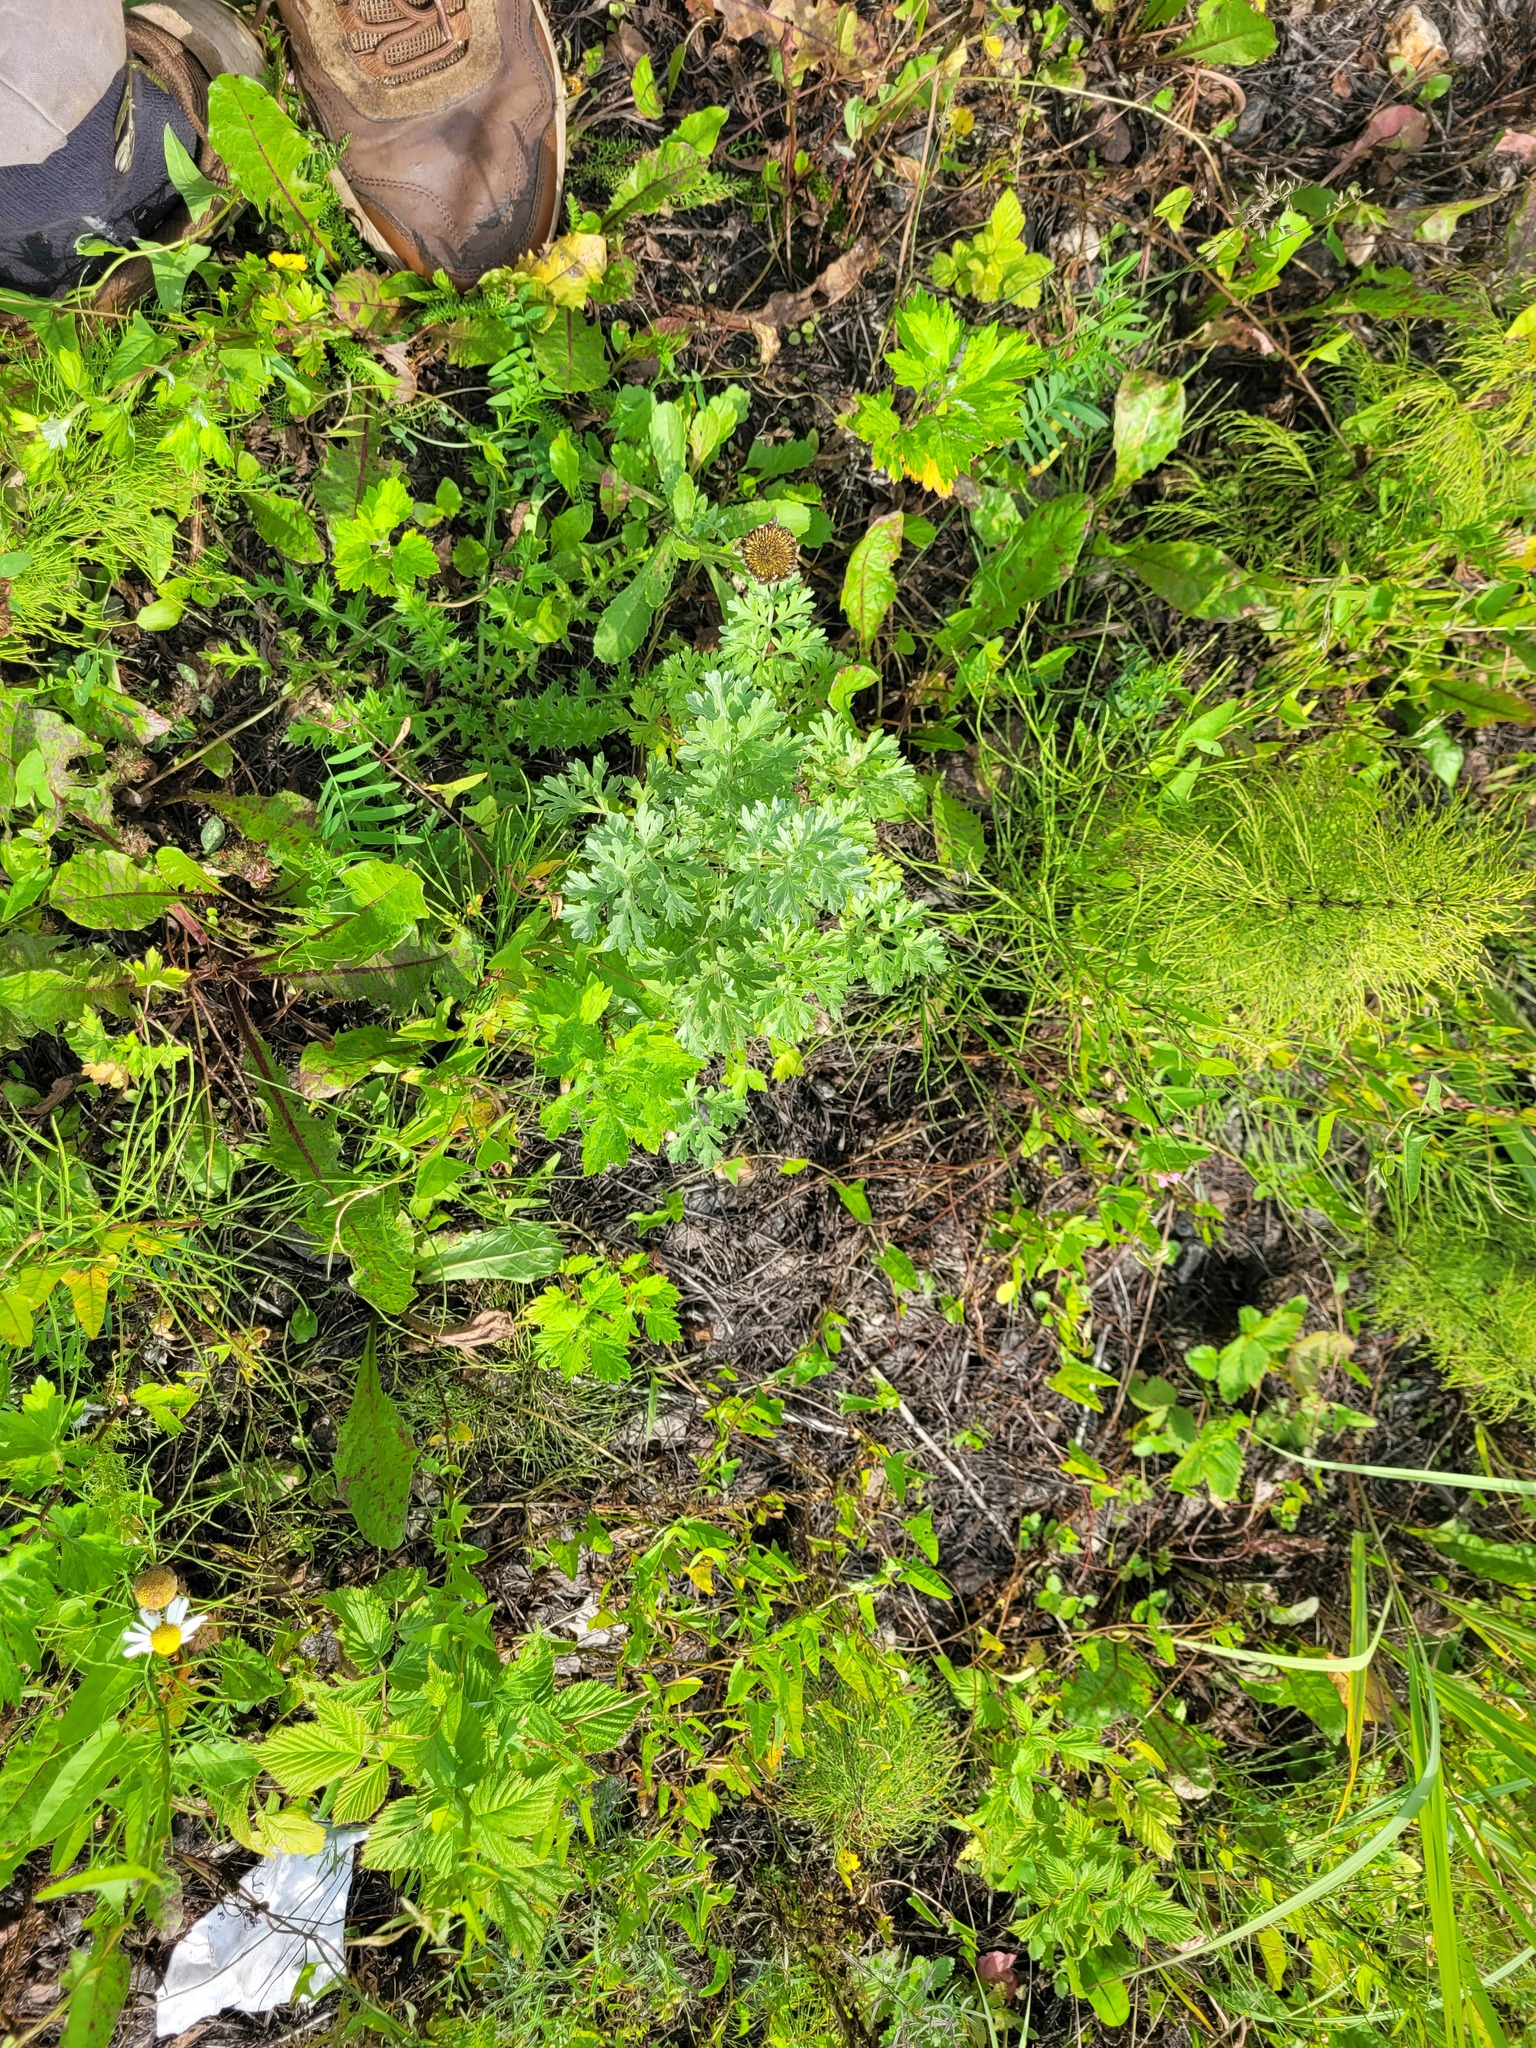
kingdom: Plantae
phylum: Tracheophyta
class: Magnoliopsida
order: Asterales
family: Asteraceae
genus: Artemisia
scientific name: Artemisia absinthium
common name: Wormwood
